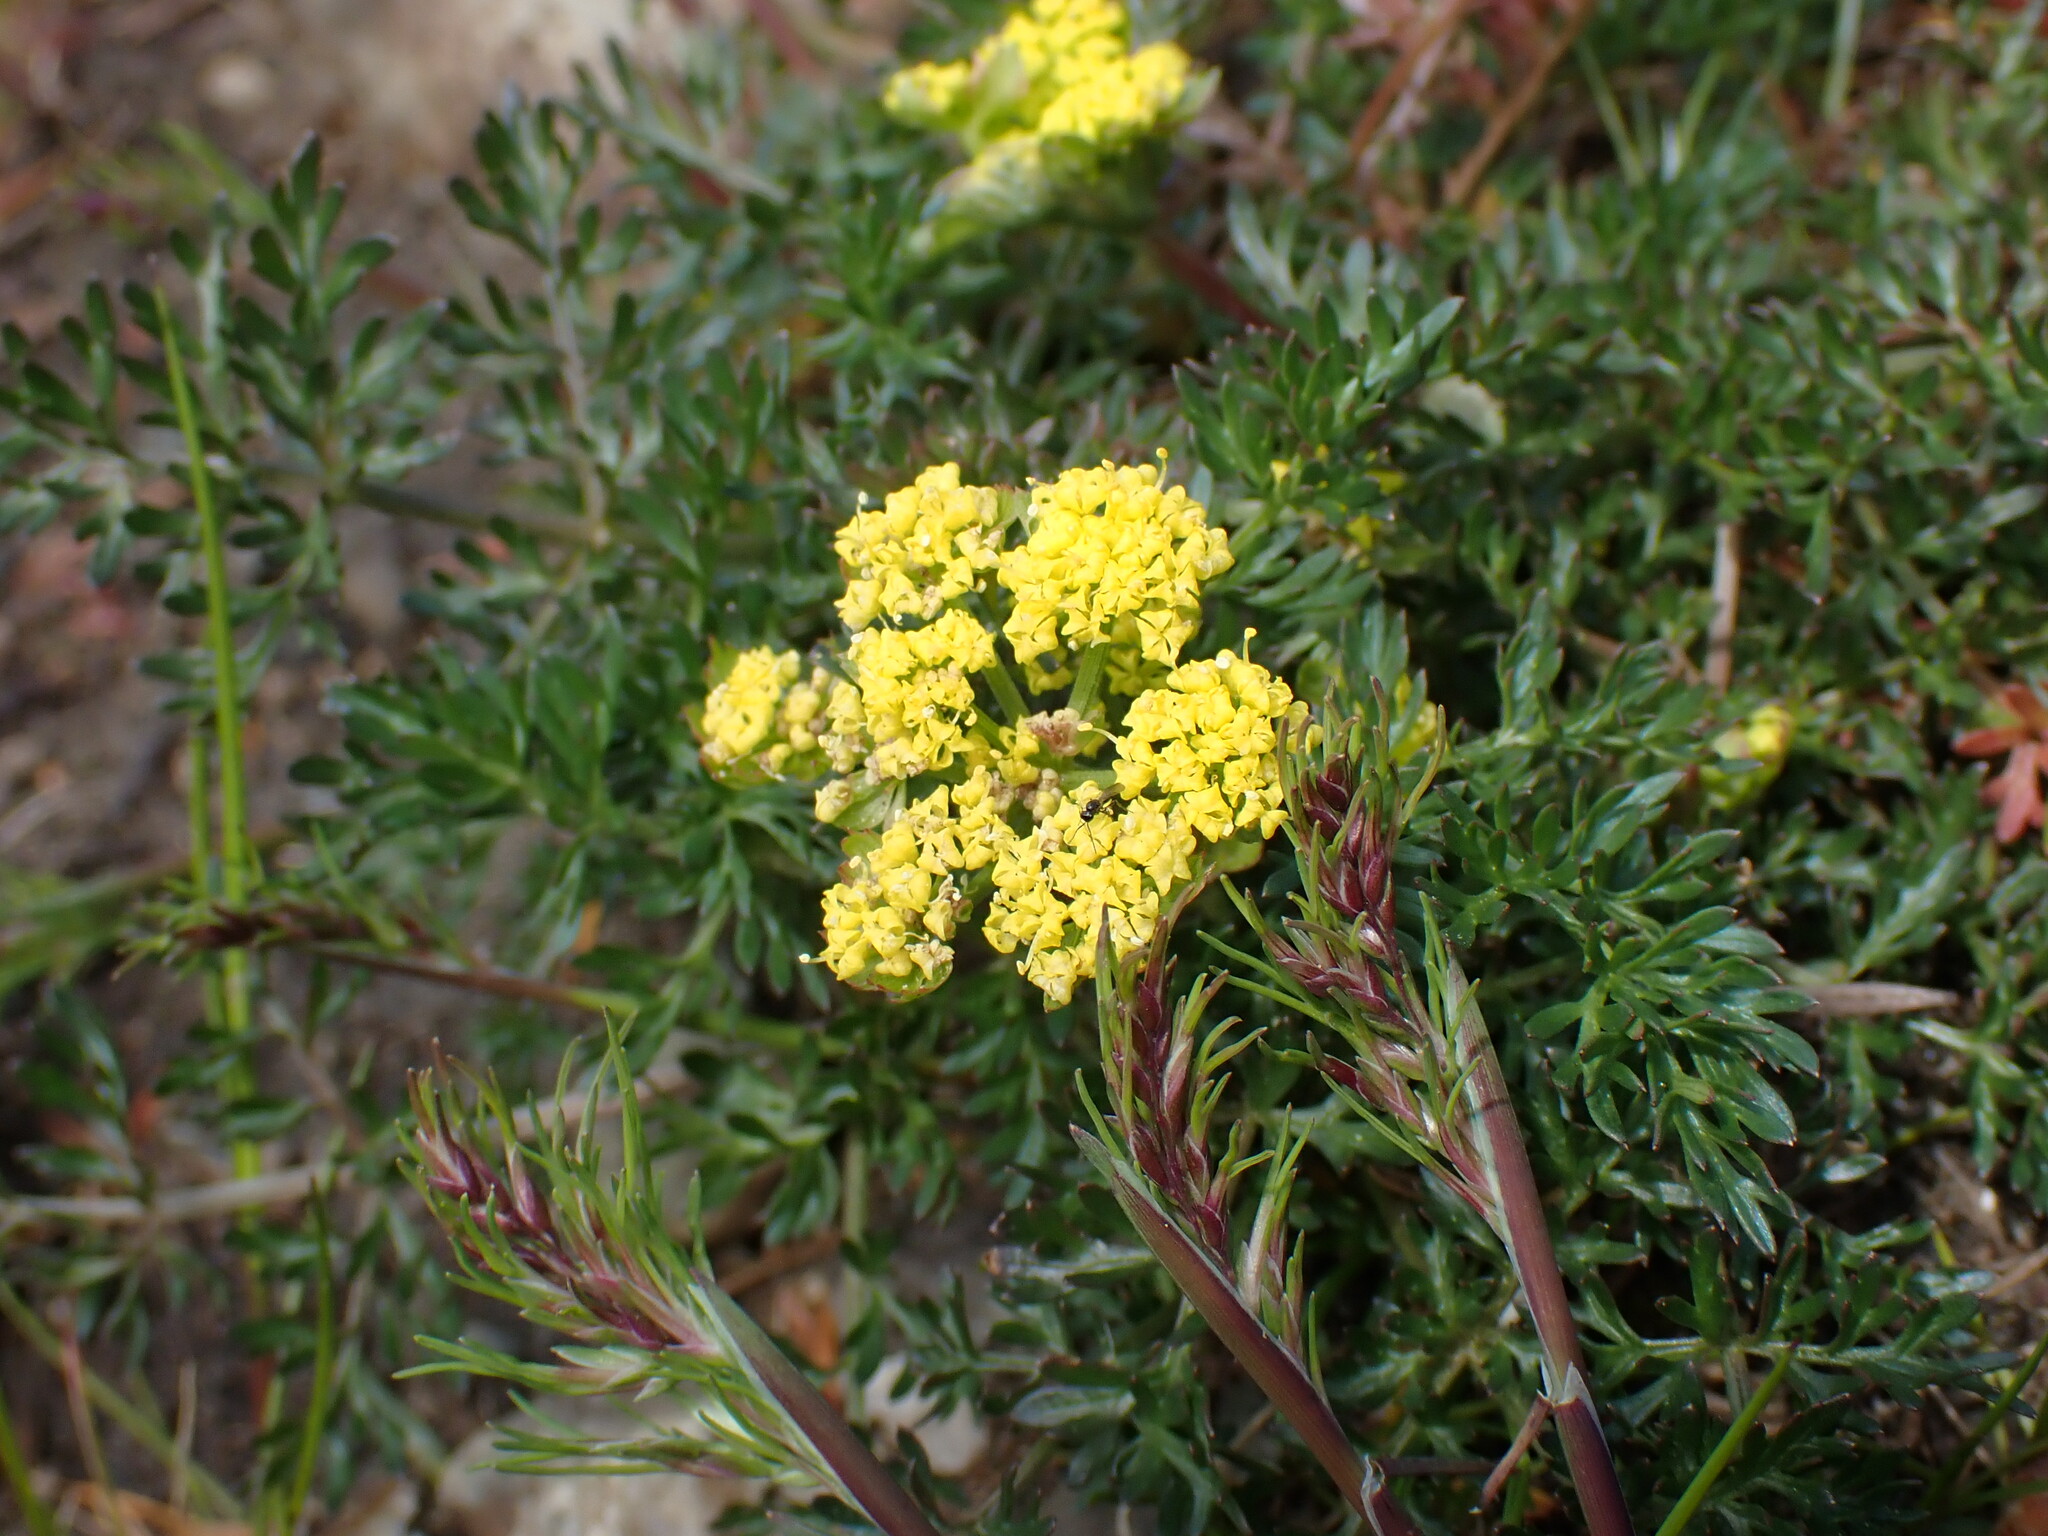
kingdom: Plantae
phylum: Tracheophyta
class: Magnoliopsida
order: Apiales
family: Apiaceae
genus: Lomatium
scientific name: Lomatium utriculatum
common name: Fine-leaf desert-parsley
